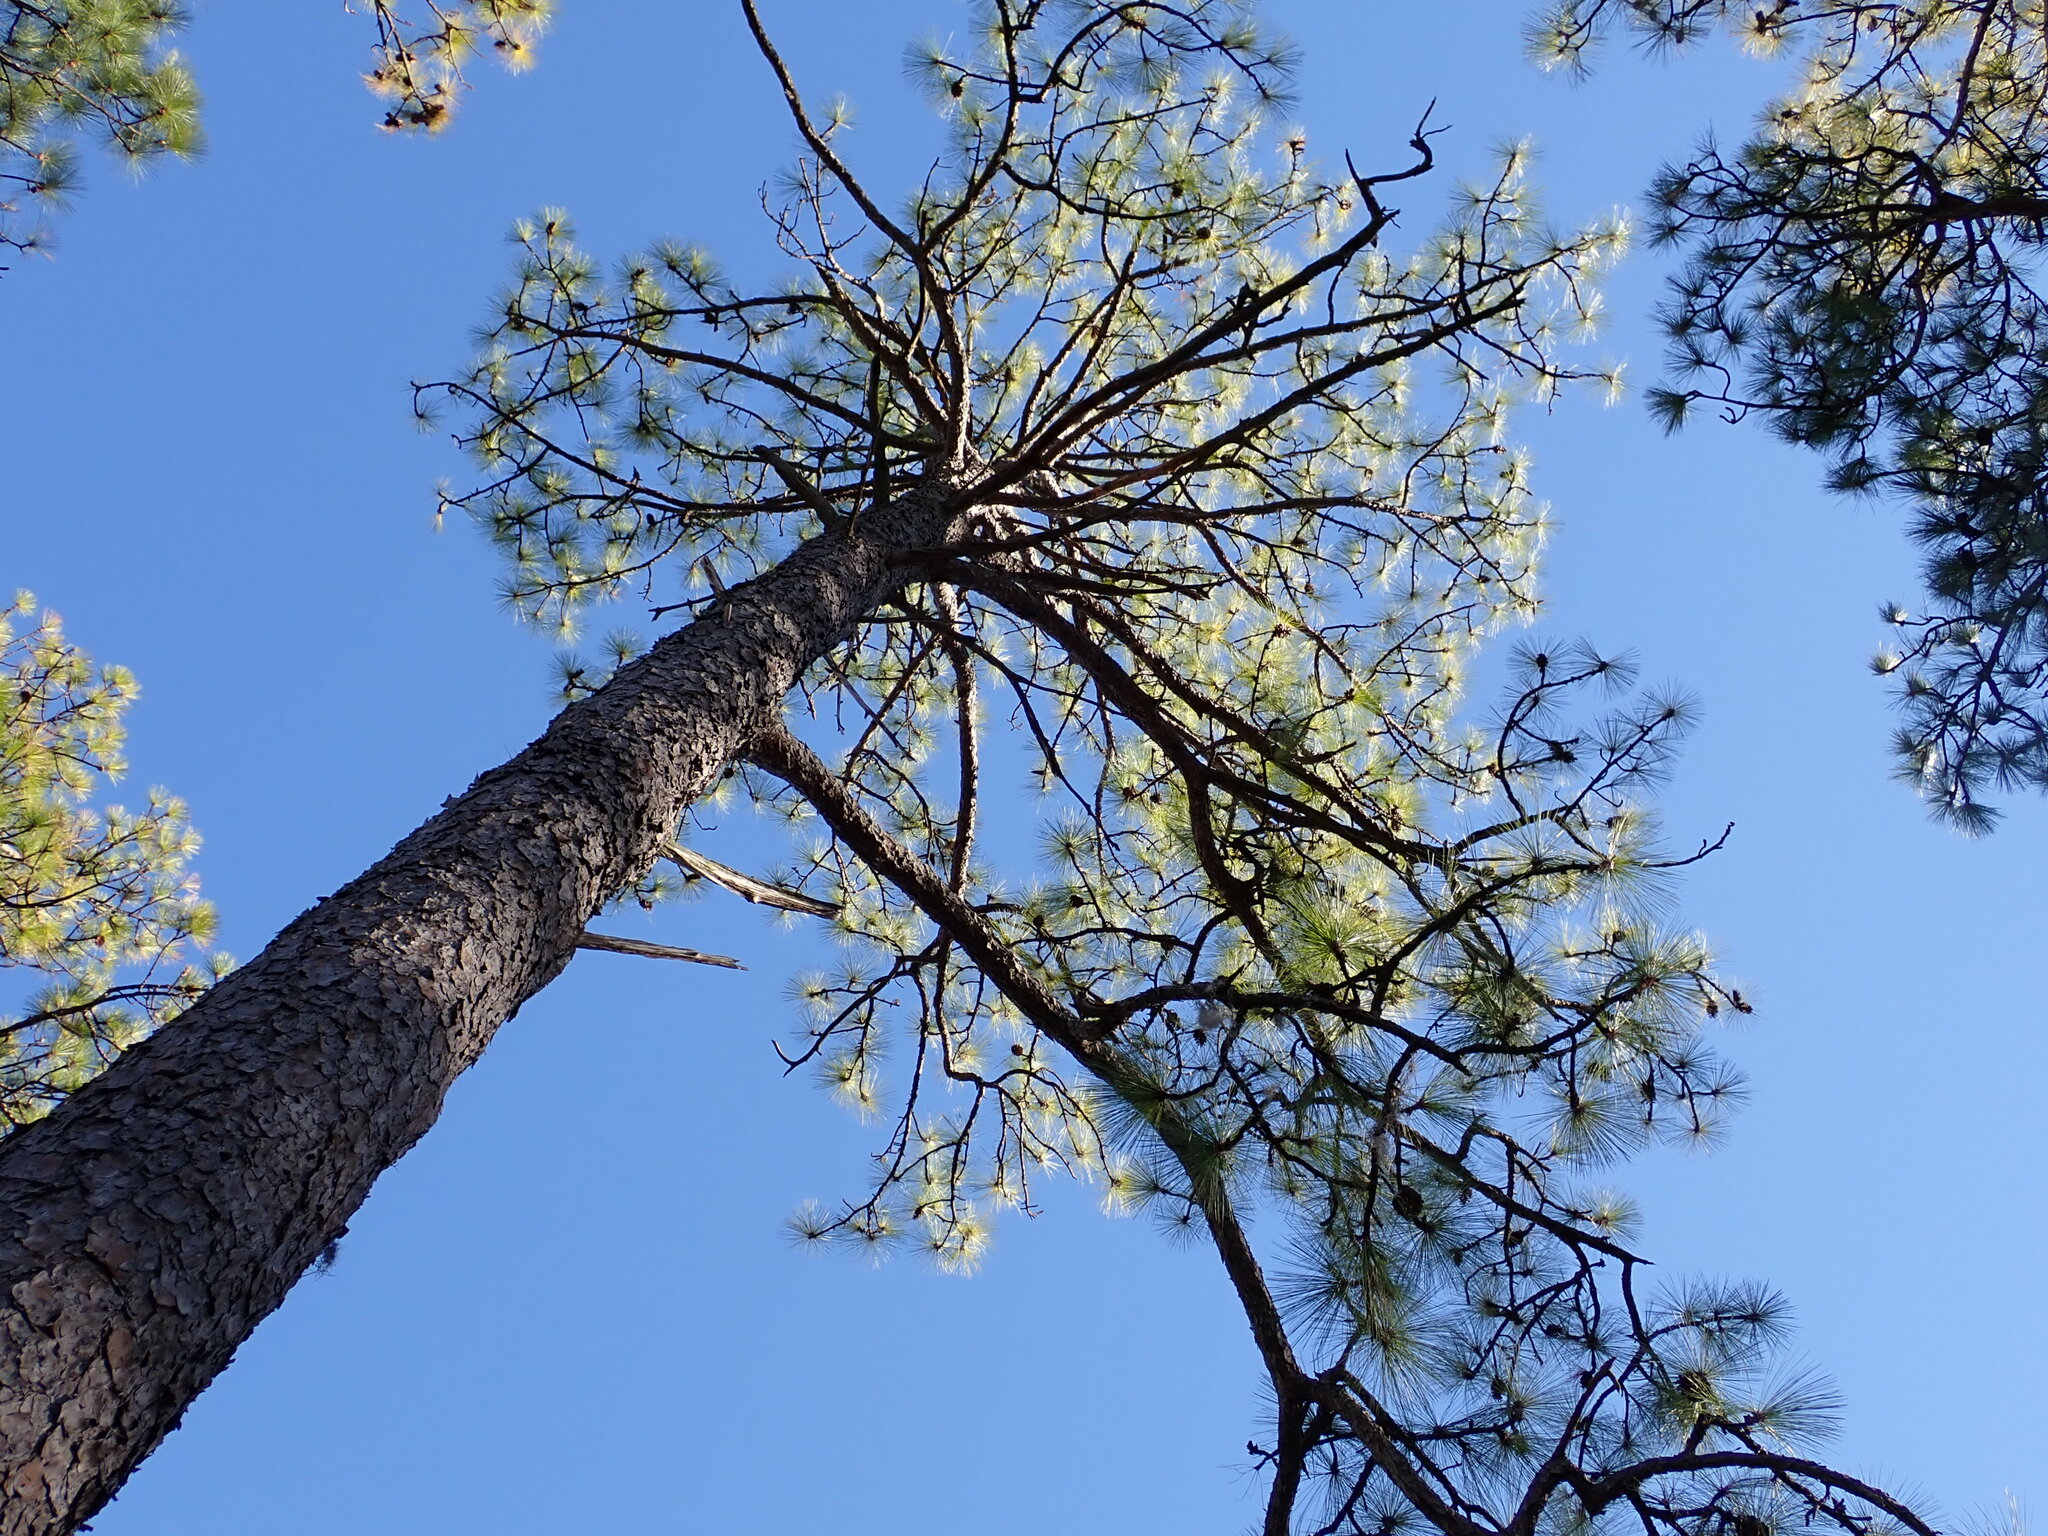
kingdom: Plantae
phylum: Tracheophyta
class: Pinopsida
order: Pinales
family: Pinaceae
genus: Pinus
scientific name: Pinus palustris
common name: Longleaf pine
